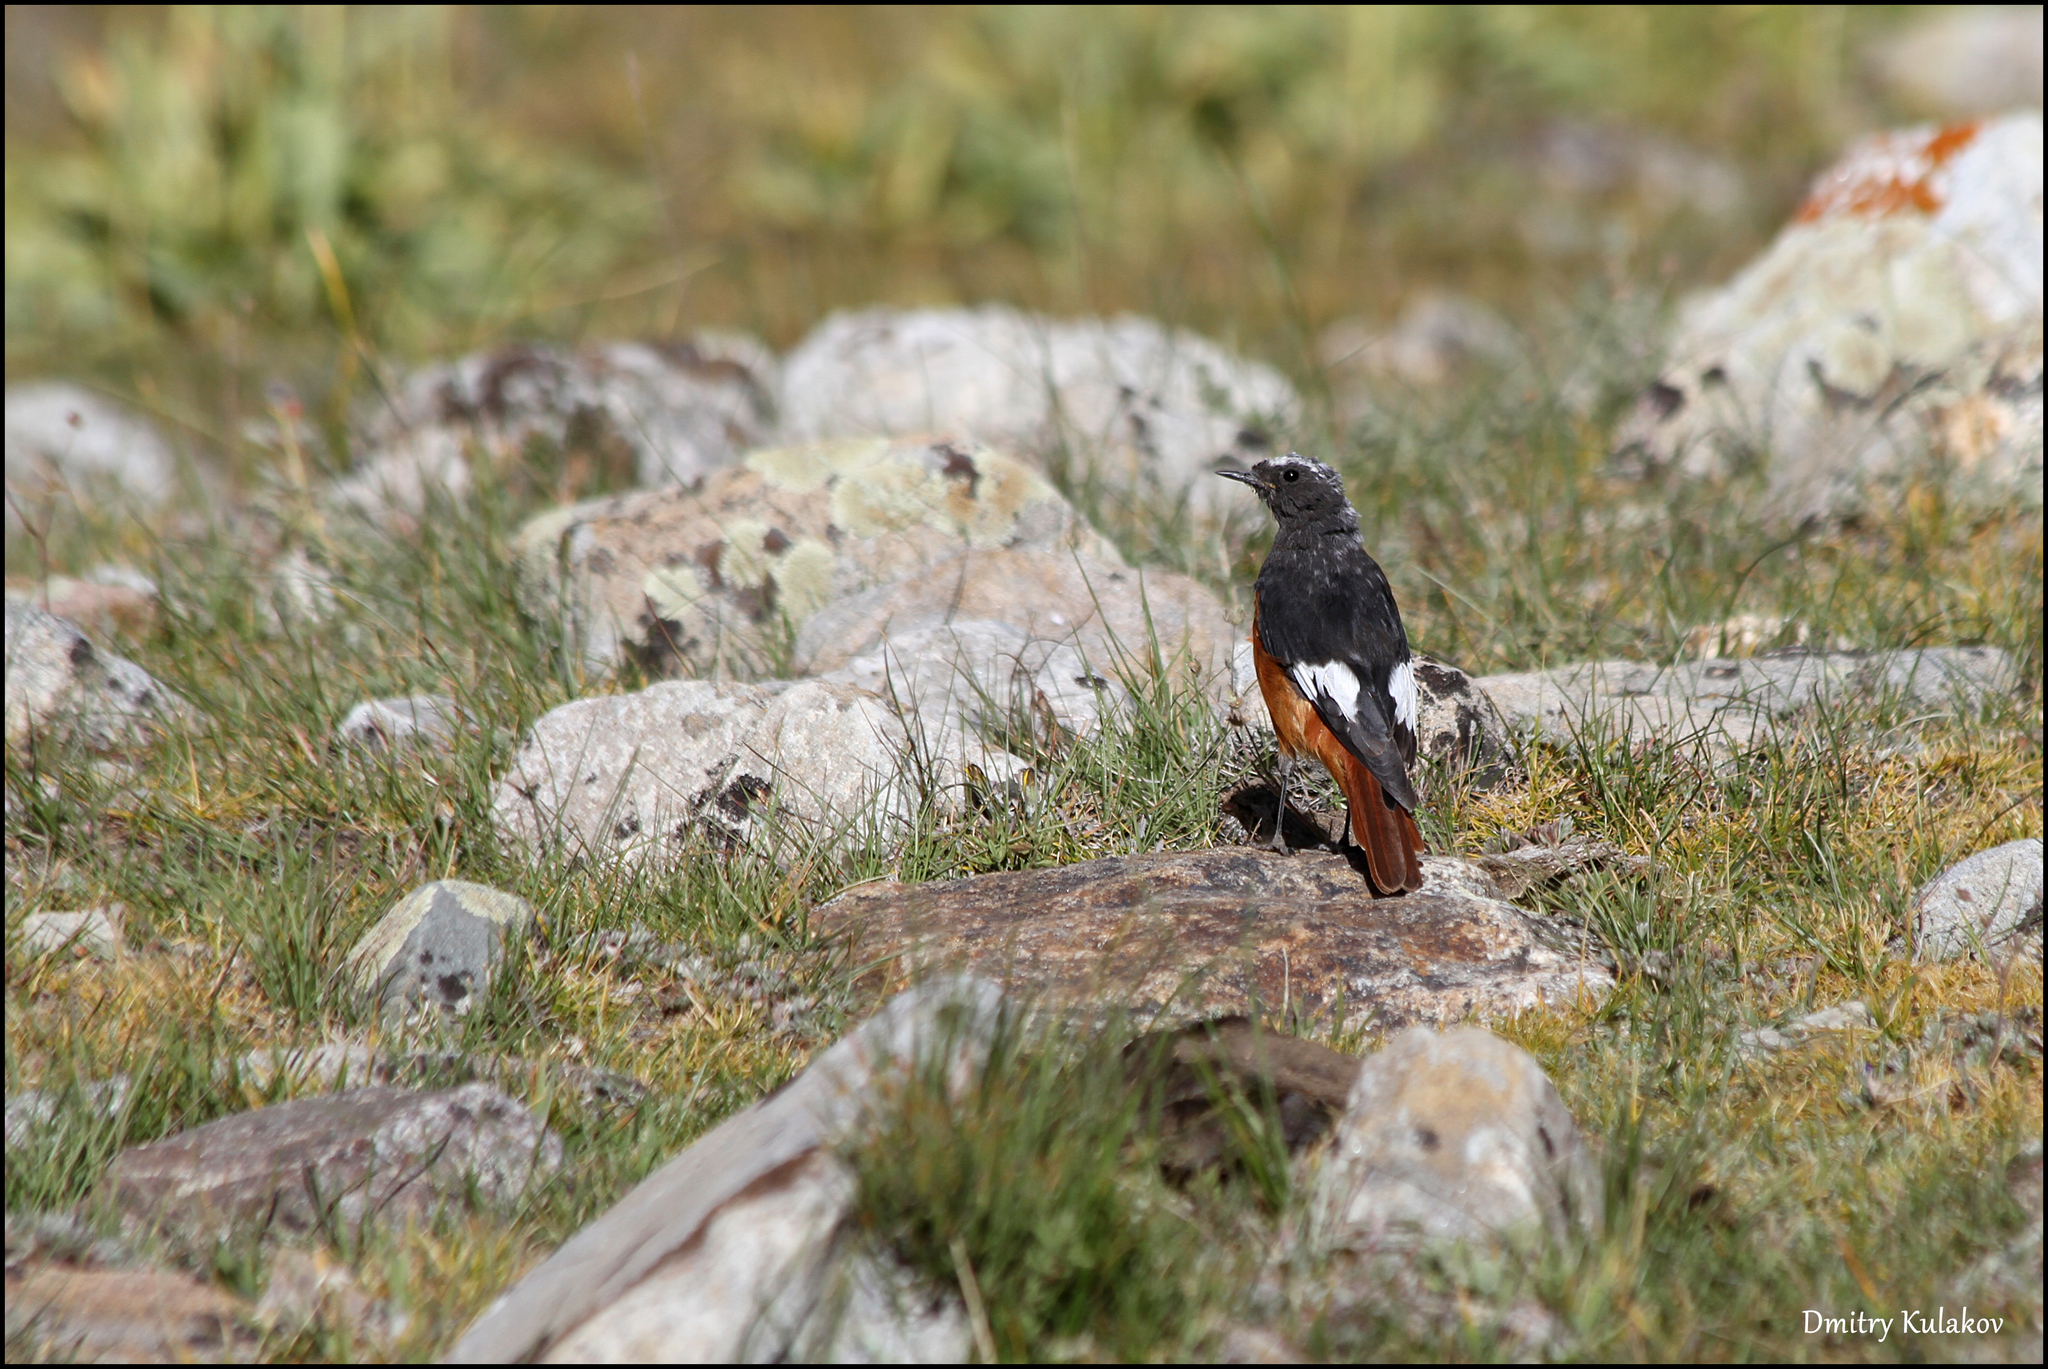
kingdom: Animalia
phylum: Chordata
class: Aves
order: Passeriformes
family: Muscicapidae
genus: Phoenicurus
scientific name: Phoenicurus erythrogastrus
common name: Güldenstädt's redstart
